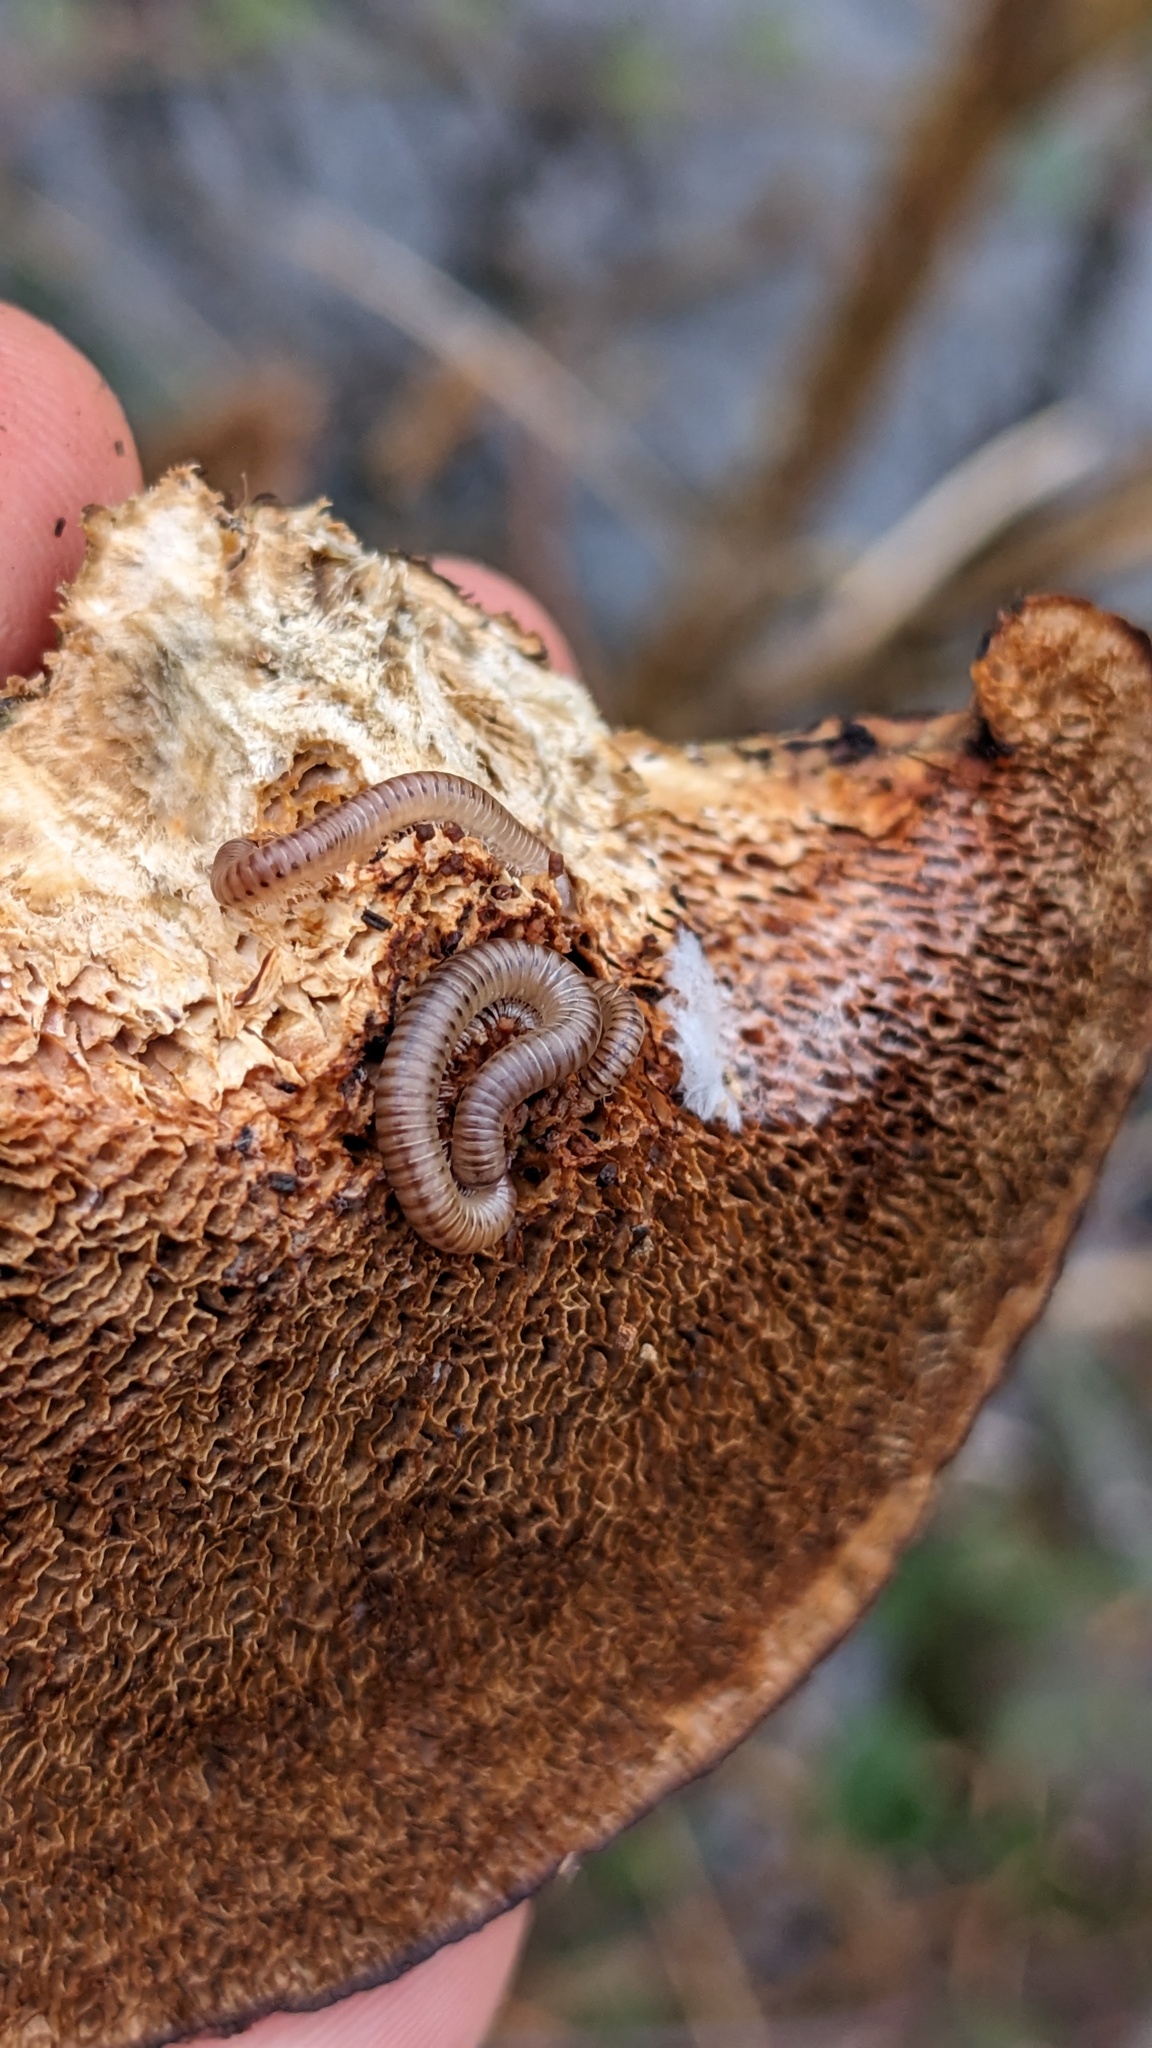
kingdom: Animalia
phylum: Arthropoda
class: Diplopoda
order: Julida
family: Julidae
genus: Cylindroiulus
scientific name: Cylindroiulus punctatus
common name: Blunt-tailed millipede
